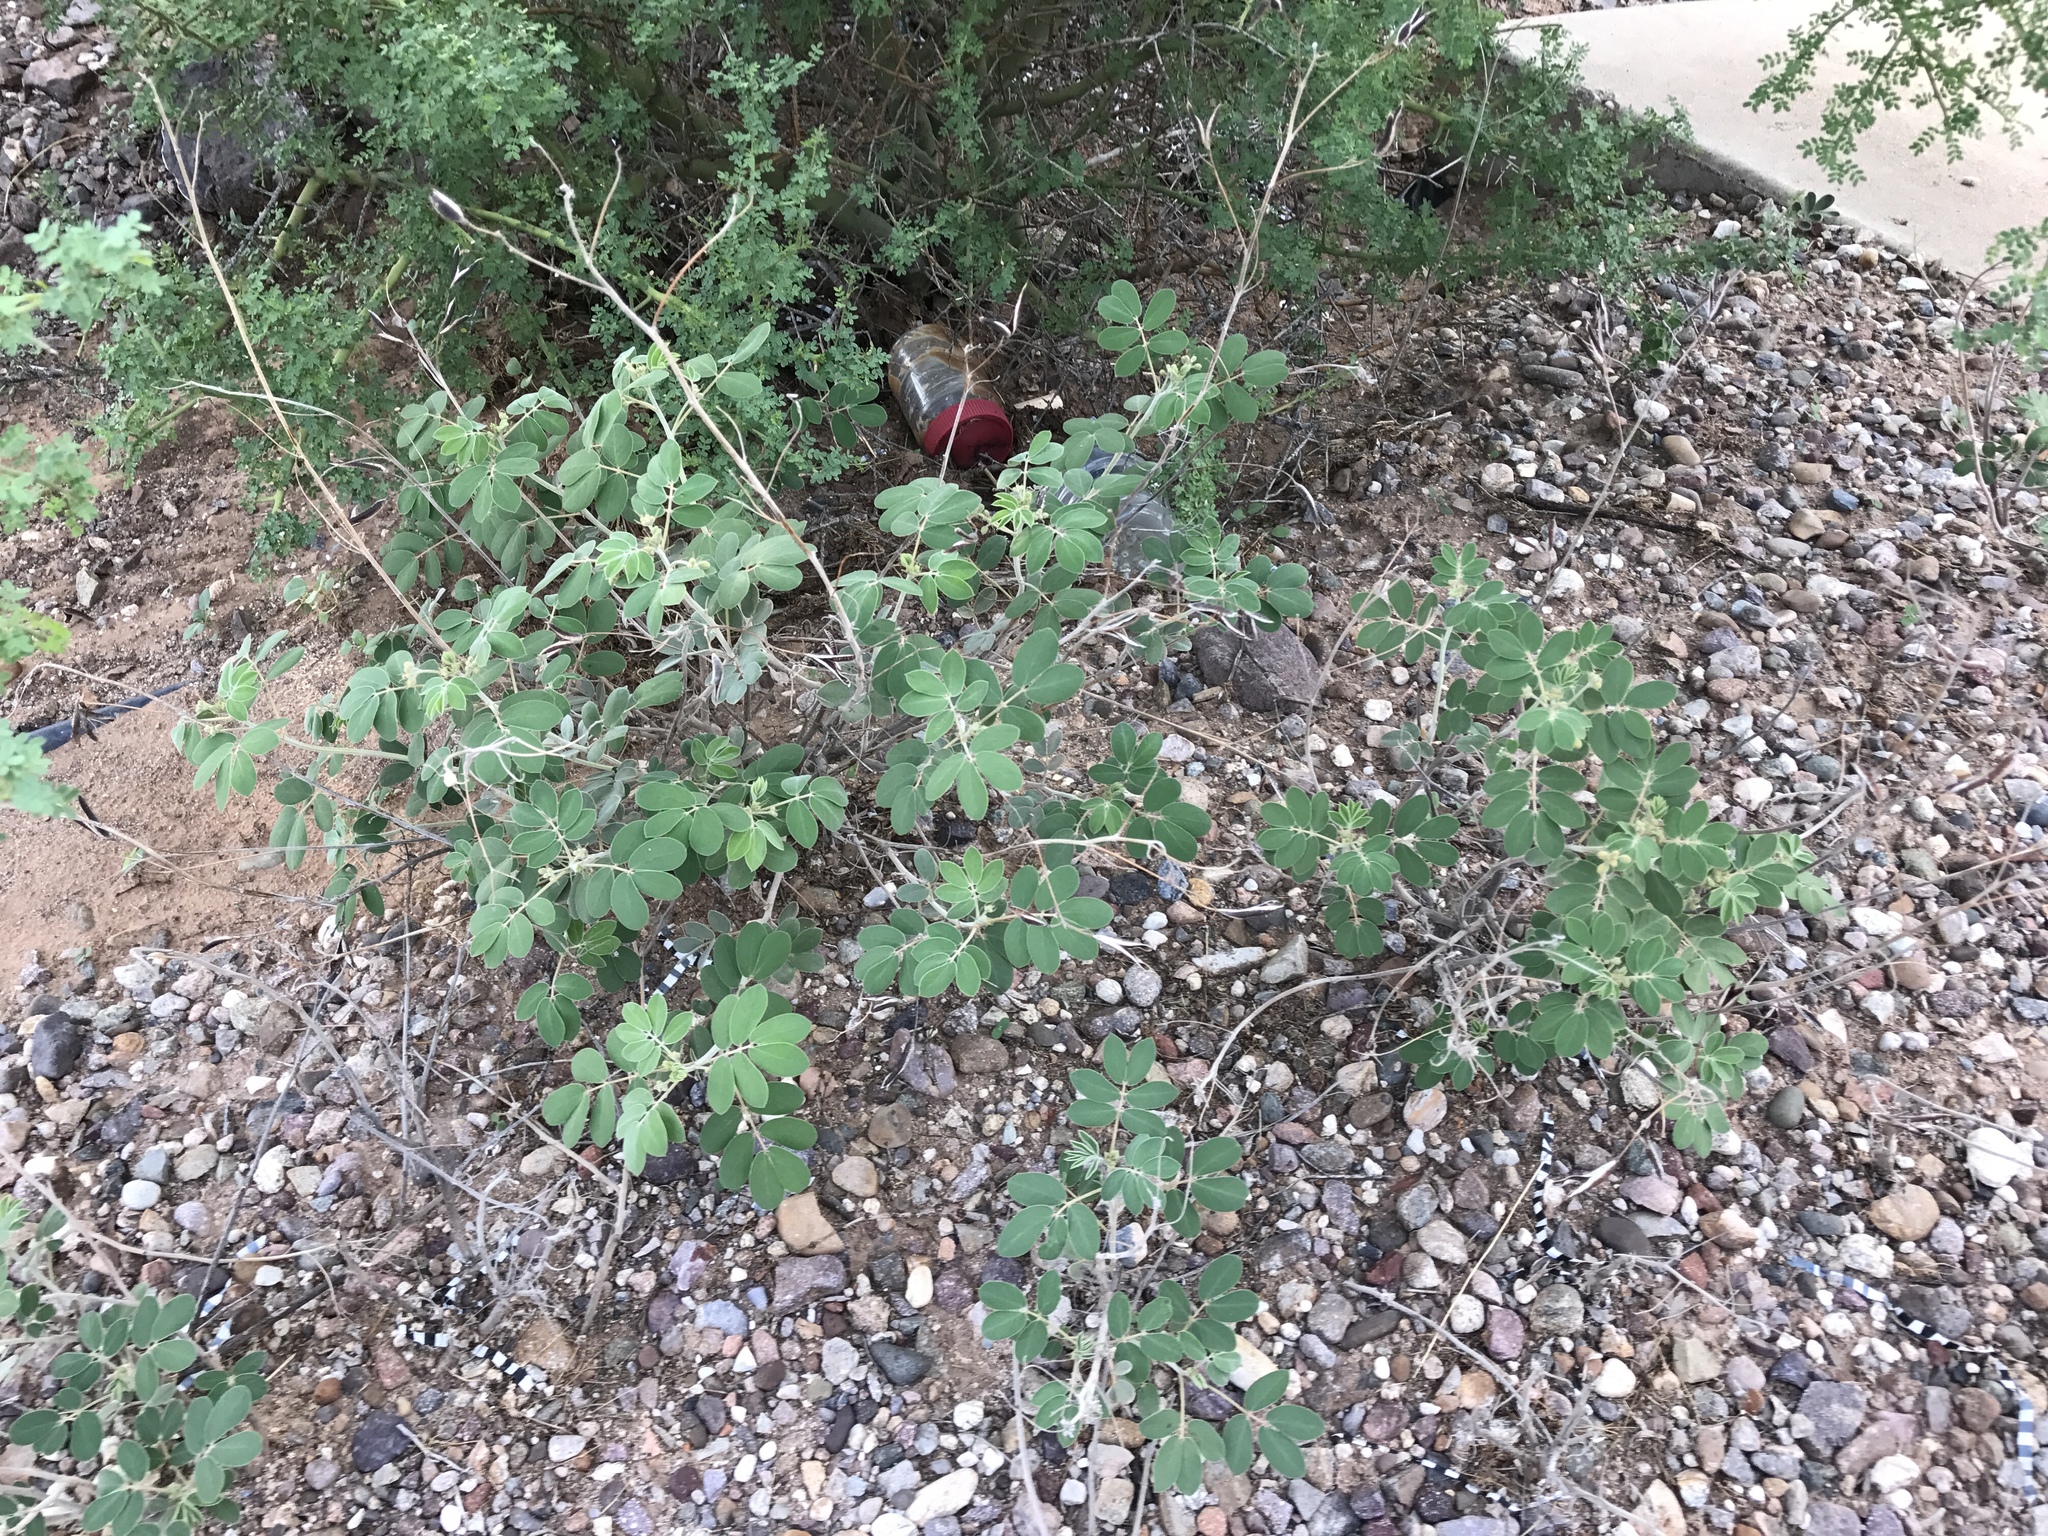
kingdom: Plantae
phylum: Tracheophyta
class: Magnoliopsida
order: Fabales
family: Fabaceae
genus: Senna
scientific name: Senna covesii
